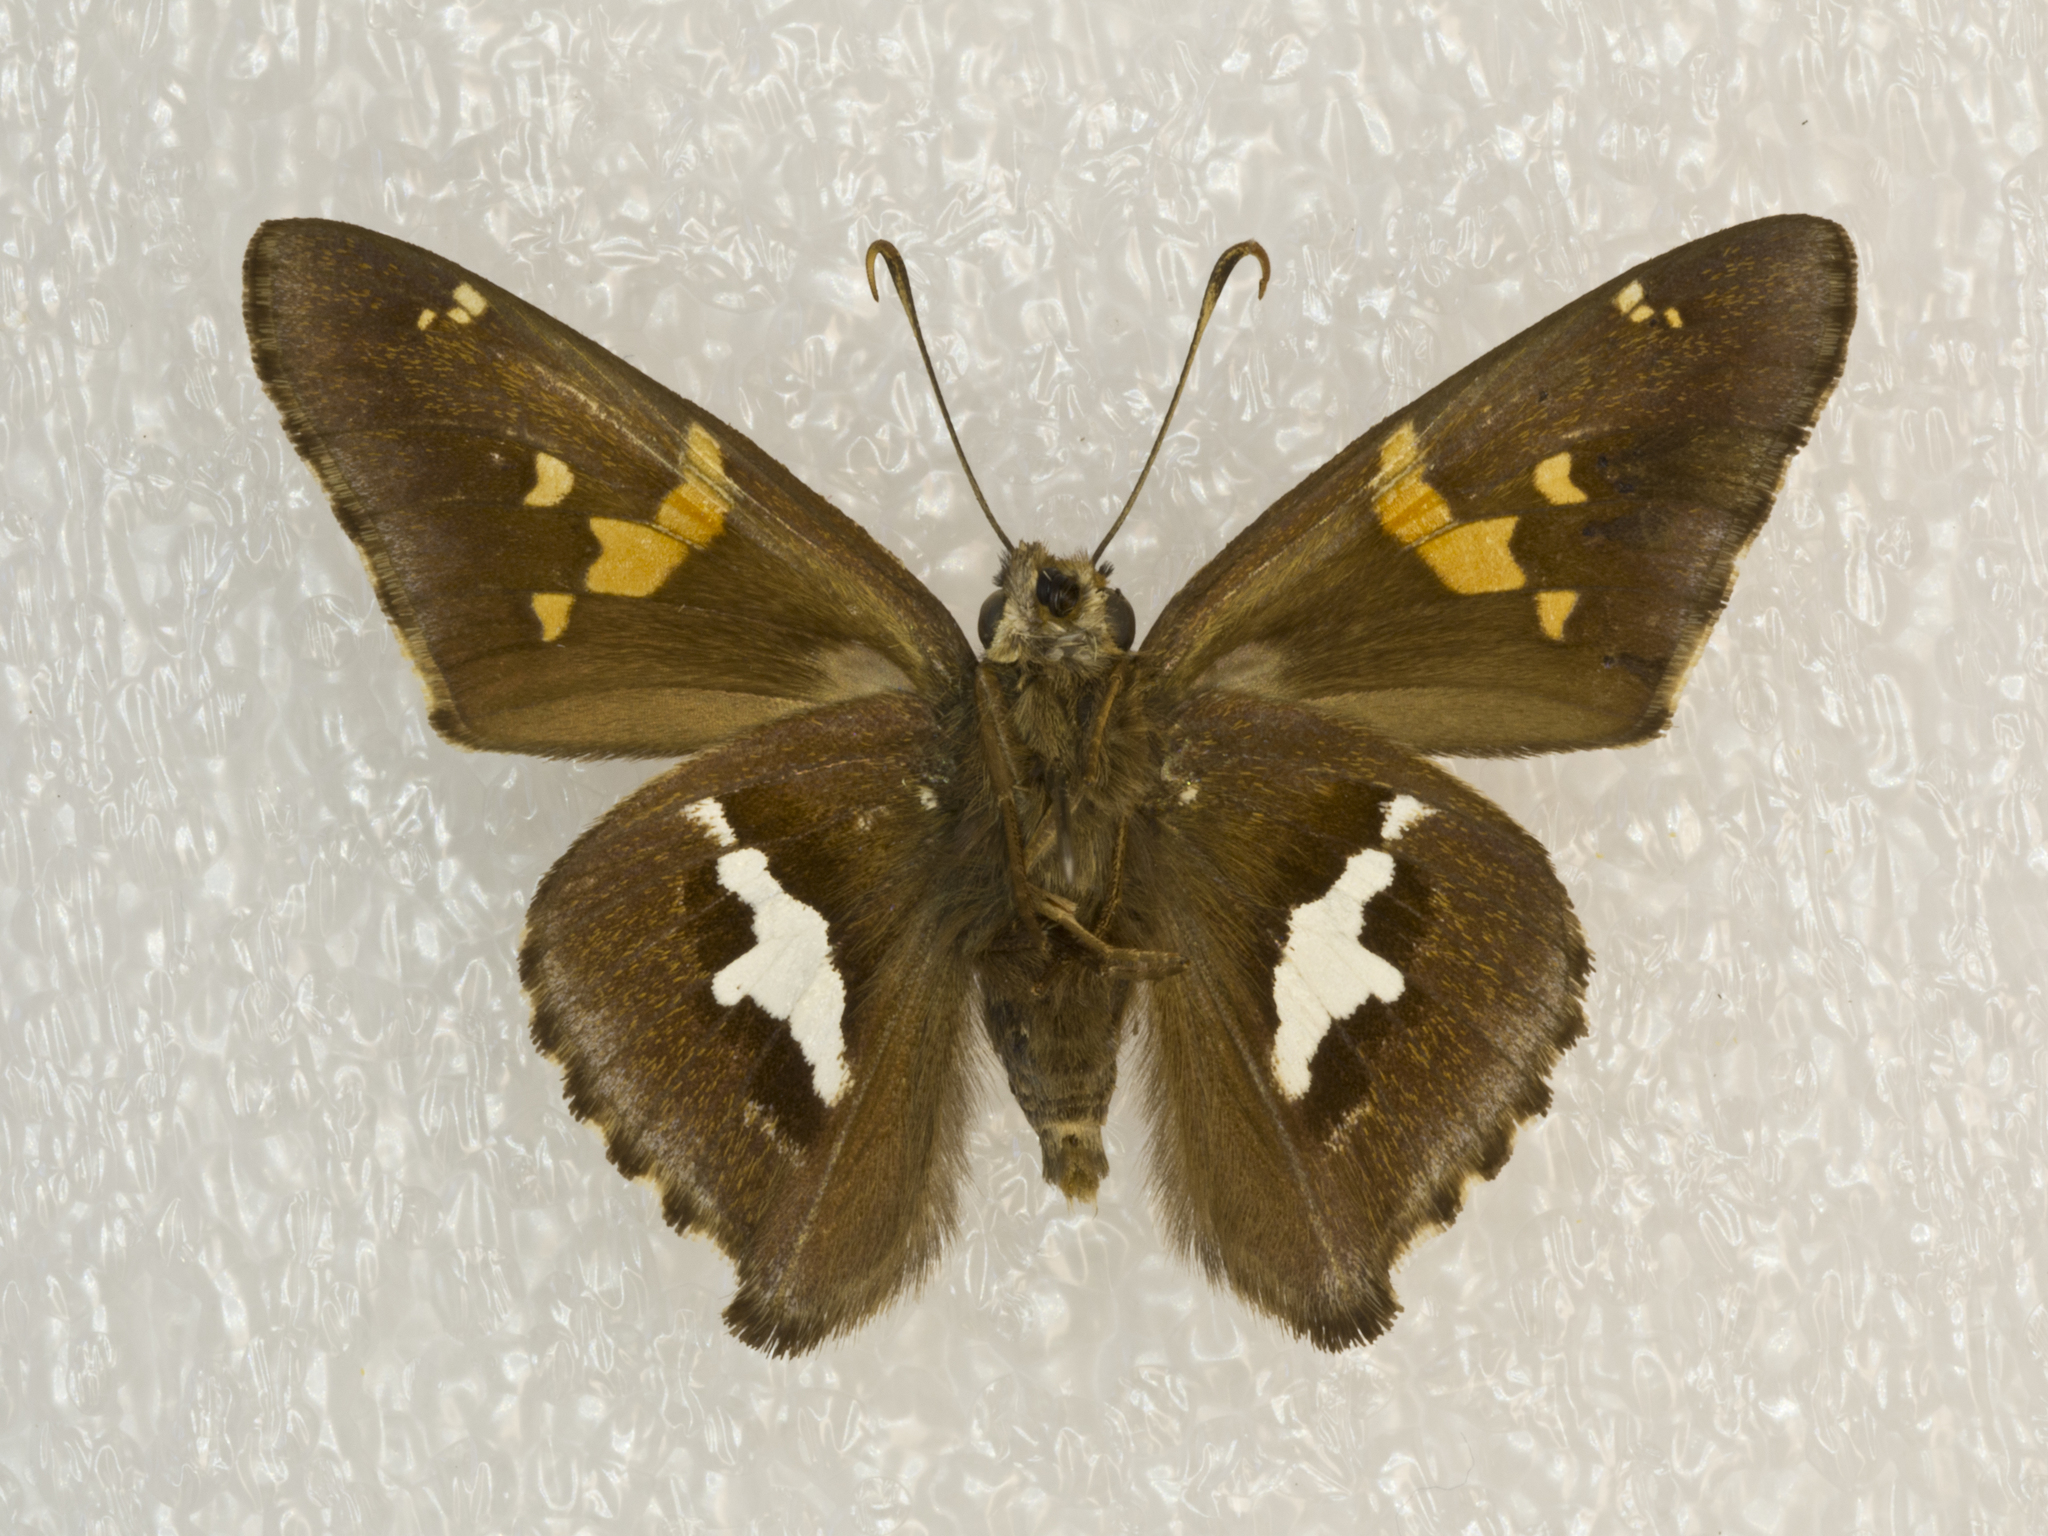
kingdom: Animalia
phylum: Arthropoda
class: Insecta
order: Lepidoptera
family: Hesperiidae
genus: Epargyreus
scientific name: Epargyreus clarus
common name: Silver-spotted skipper
